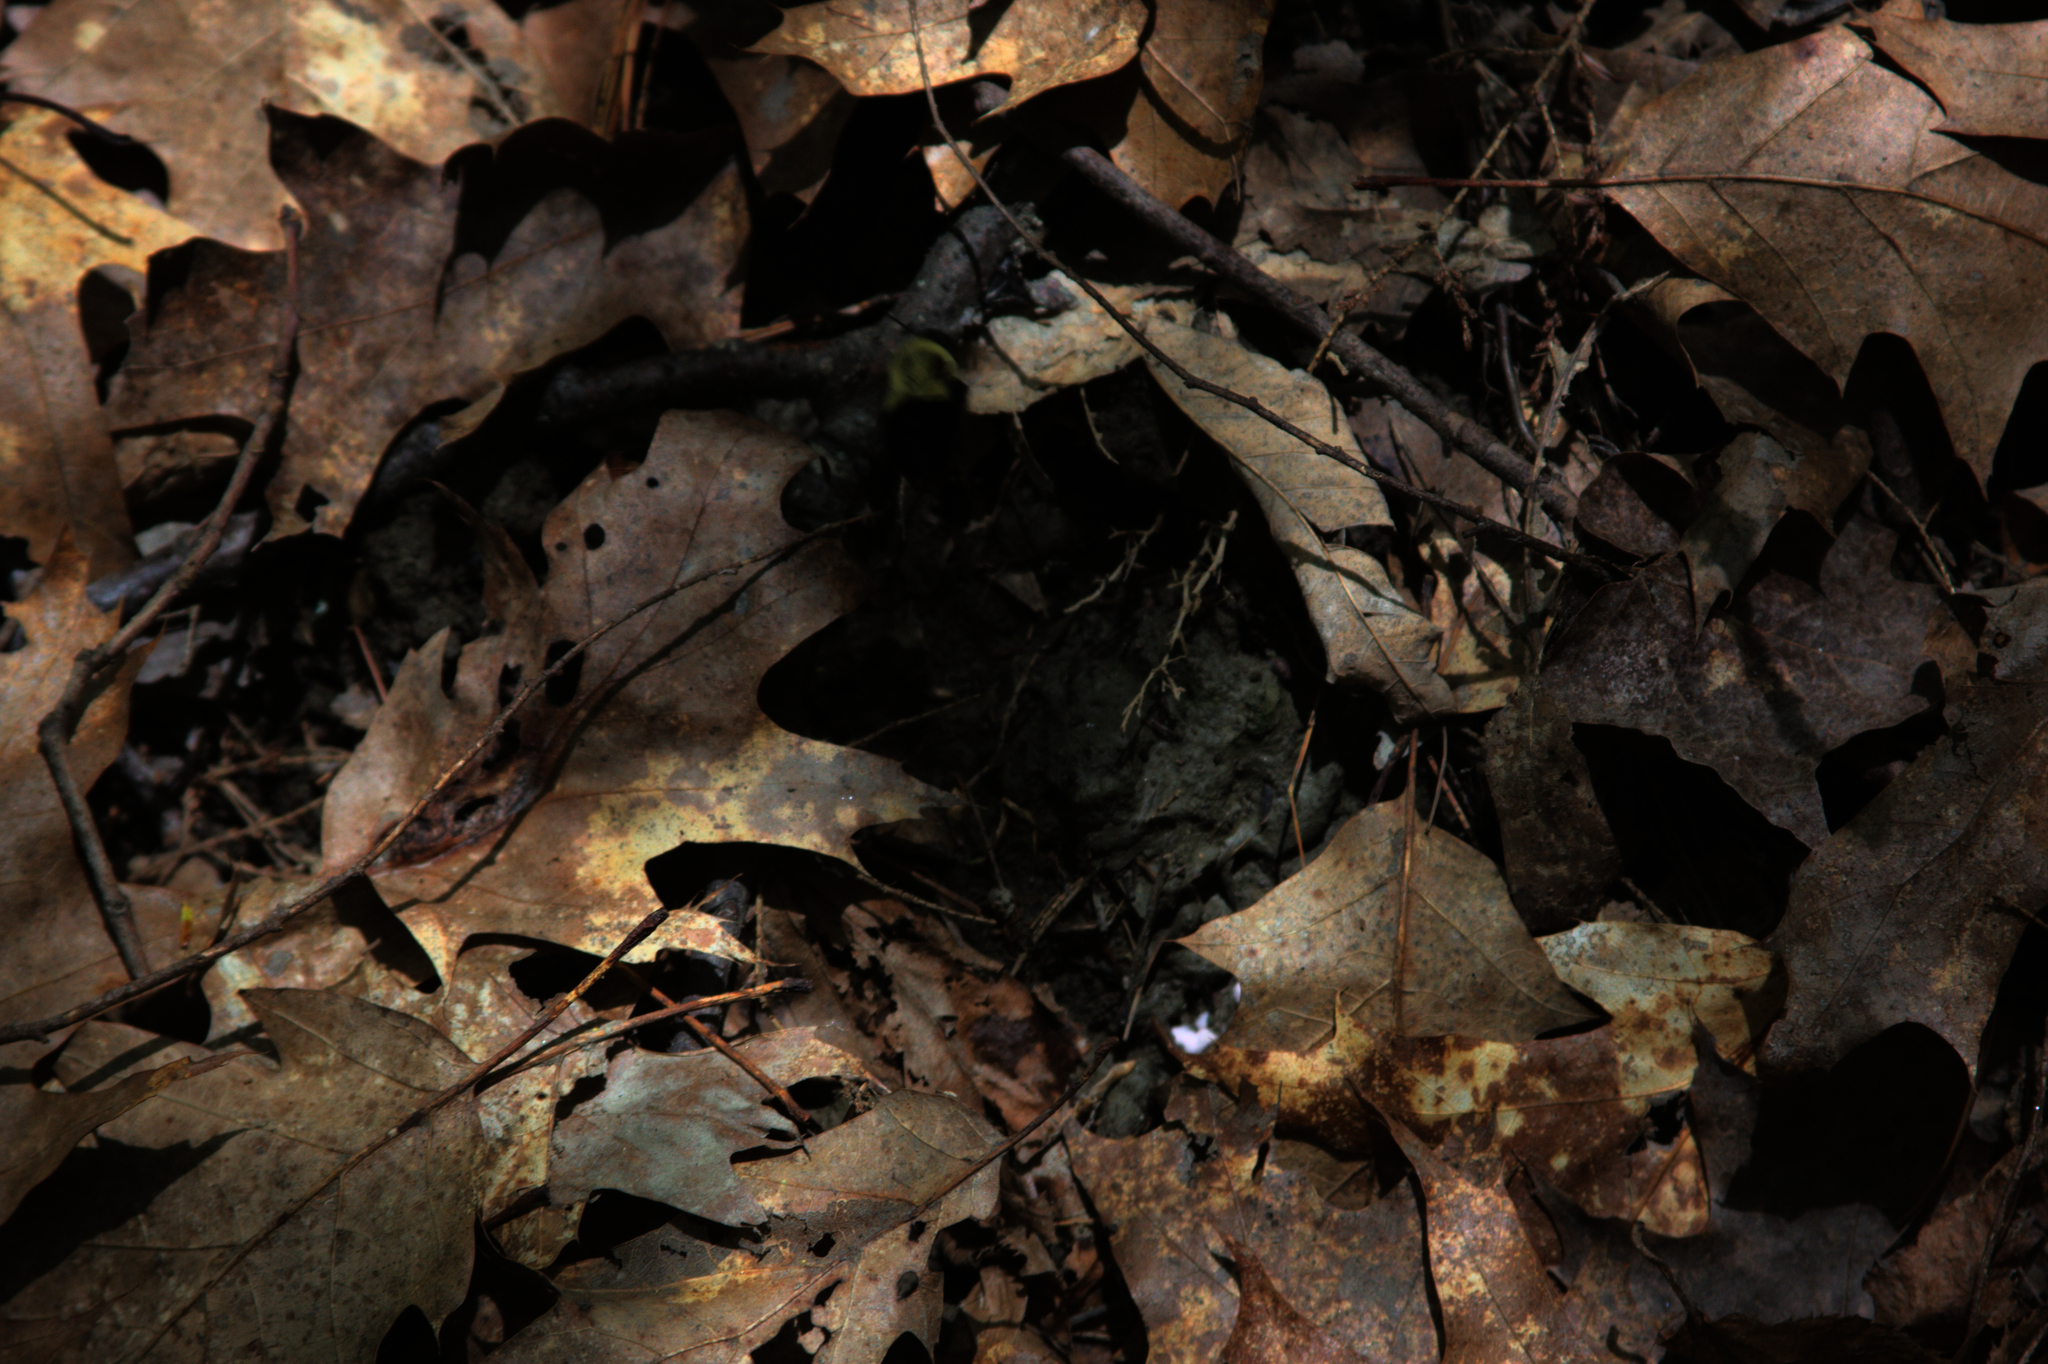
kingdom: Animalia
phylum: Arthropoda
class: Insecta
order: Hymenoptera
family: Apidae
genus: Bombus
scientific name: Bombus impatiens
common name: Common eastern bumble bee
